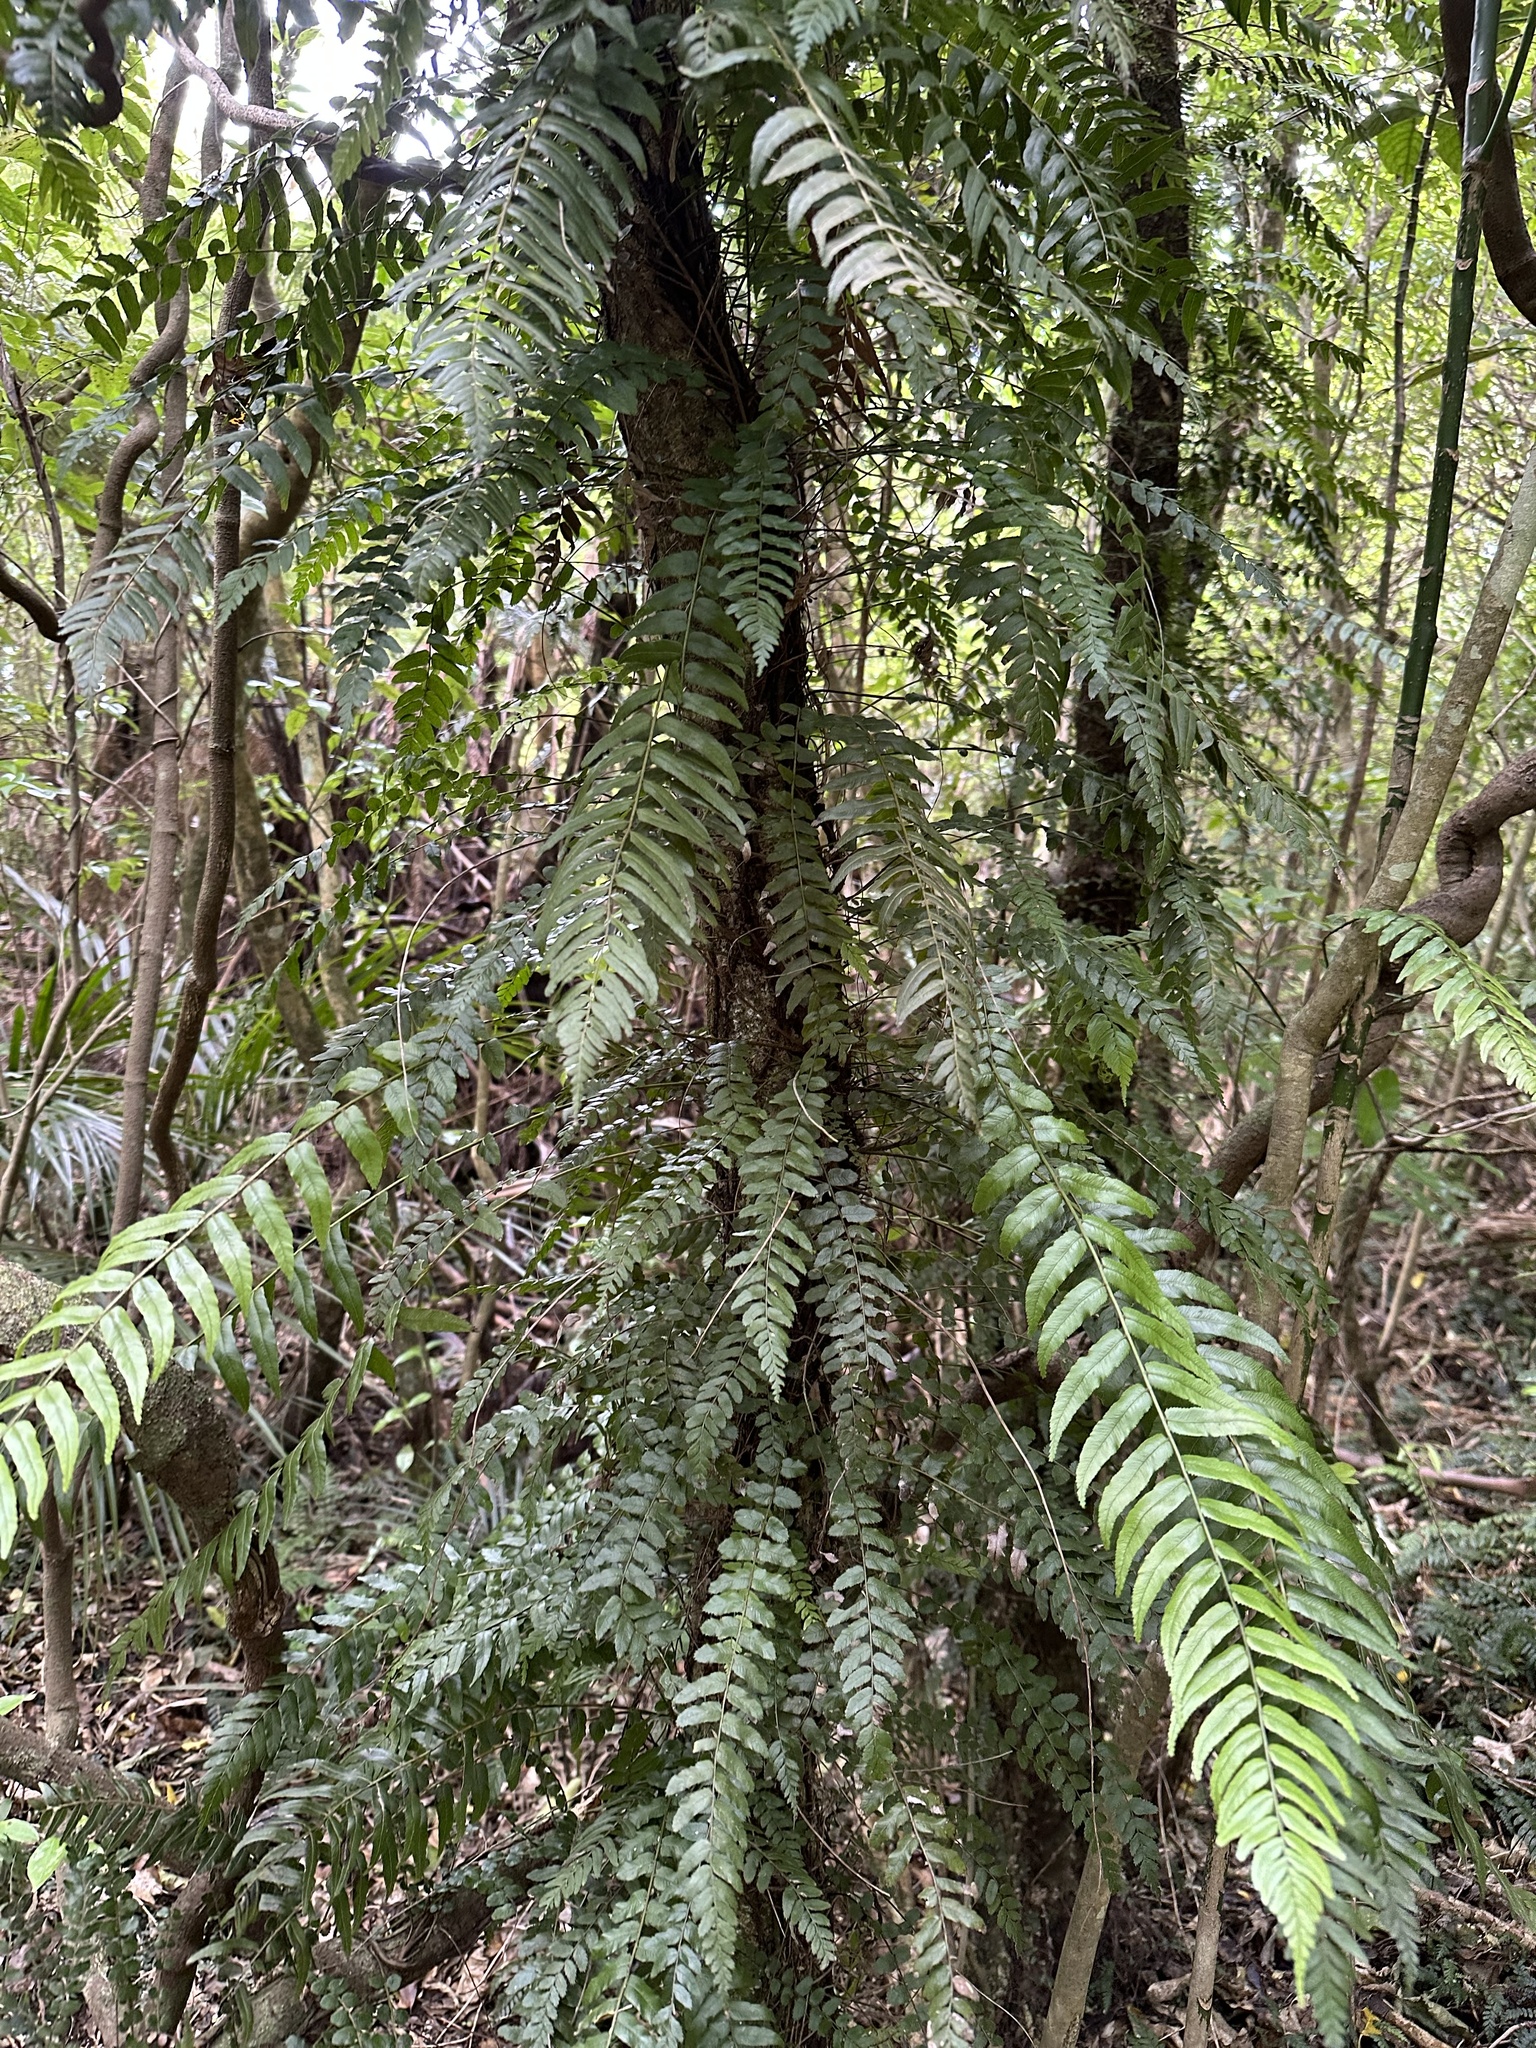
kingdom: Plantae
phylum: Tracheophyta
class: Polypodiopsida
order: Polypodiales
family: Blechnaceae
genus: Icarus
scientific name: Icarus filiformis
